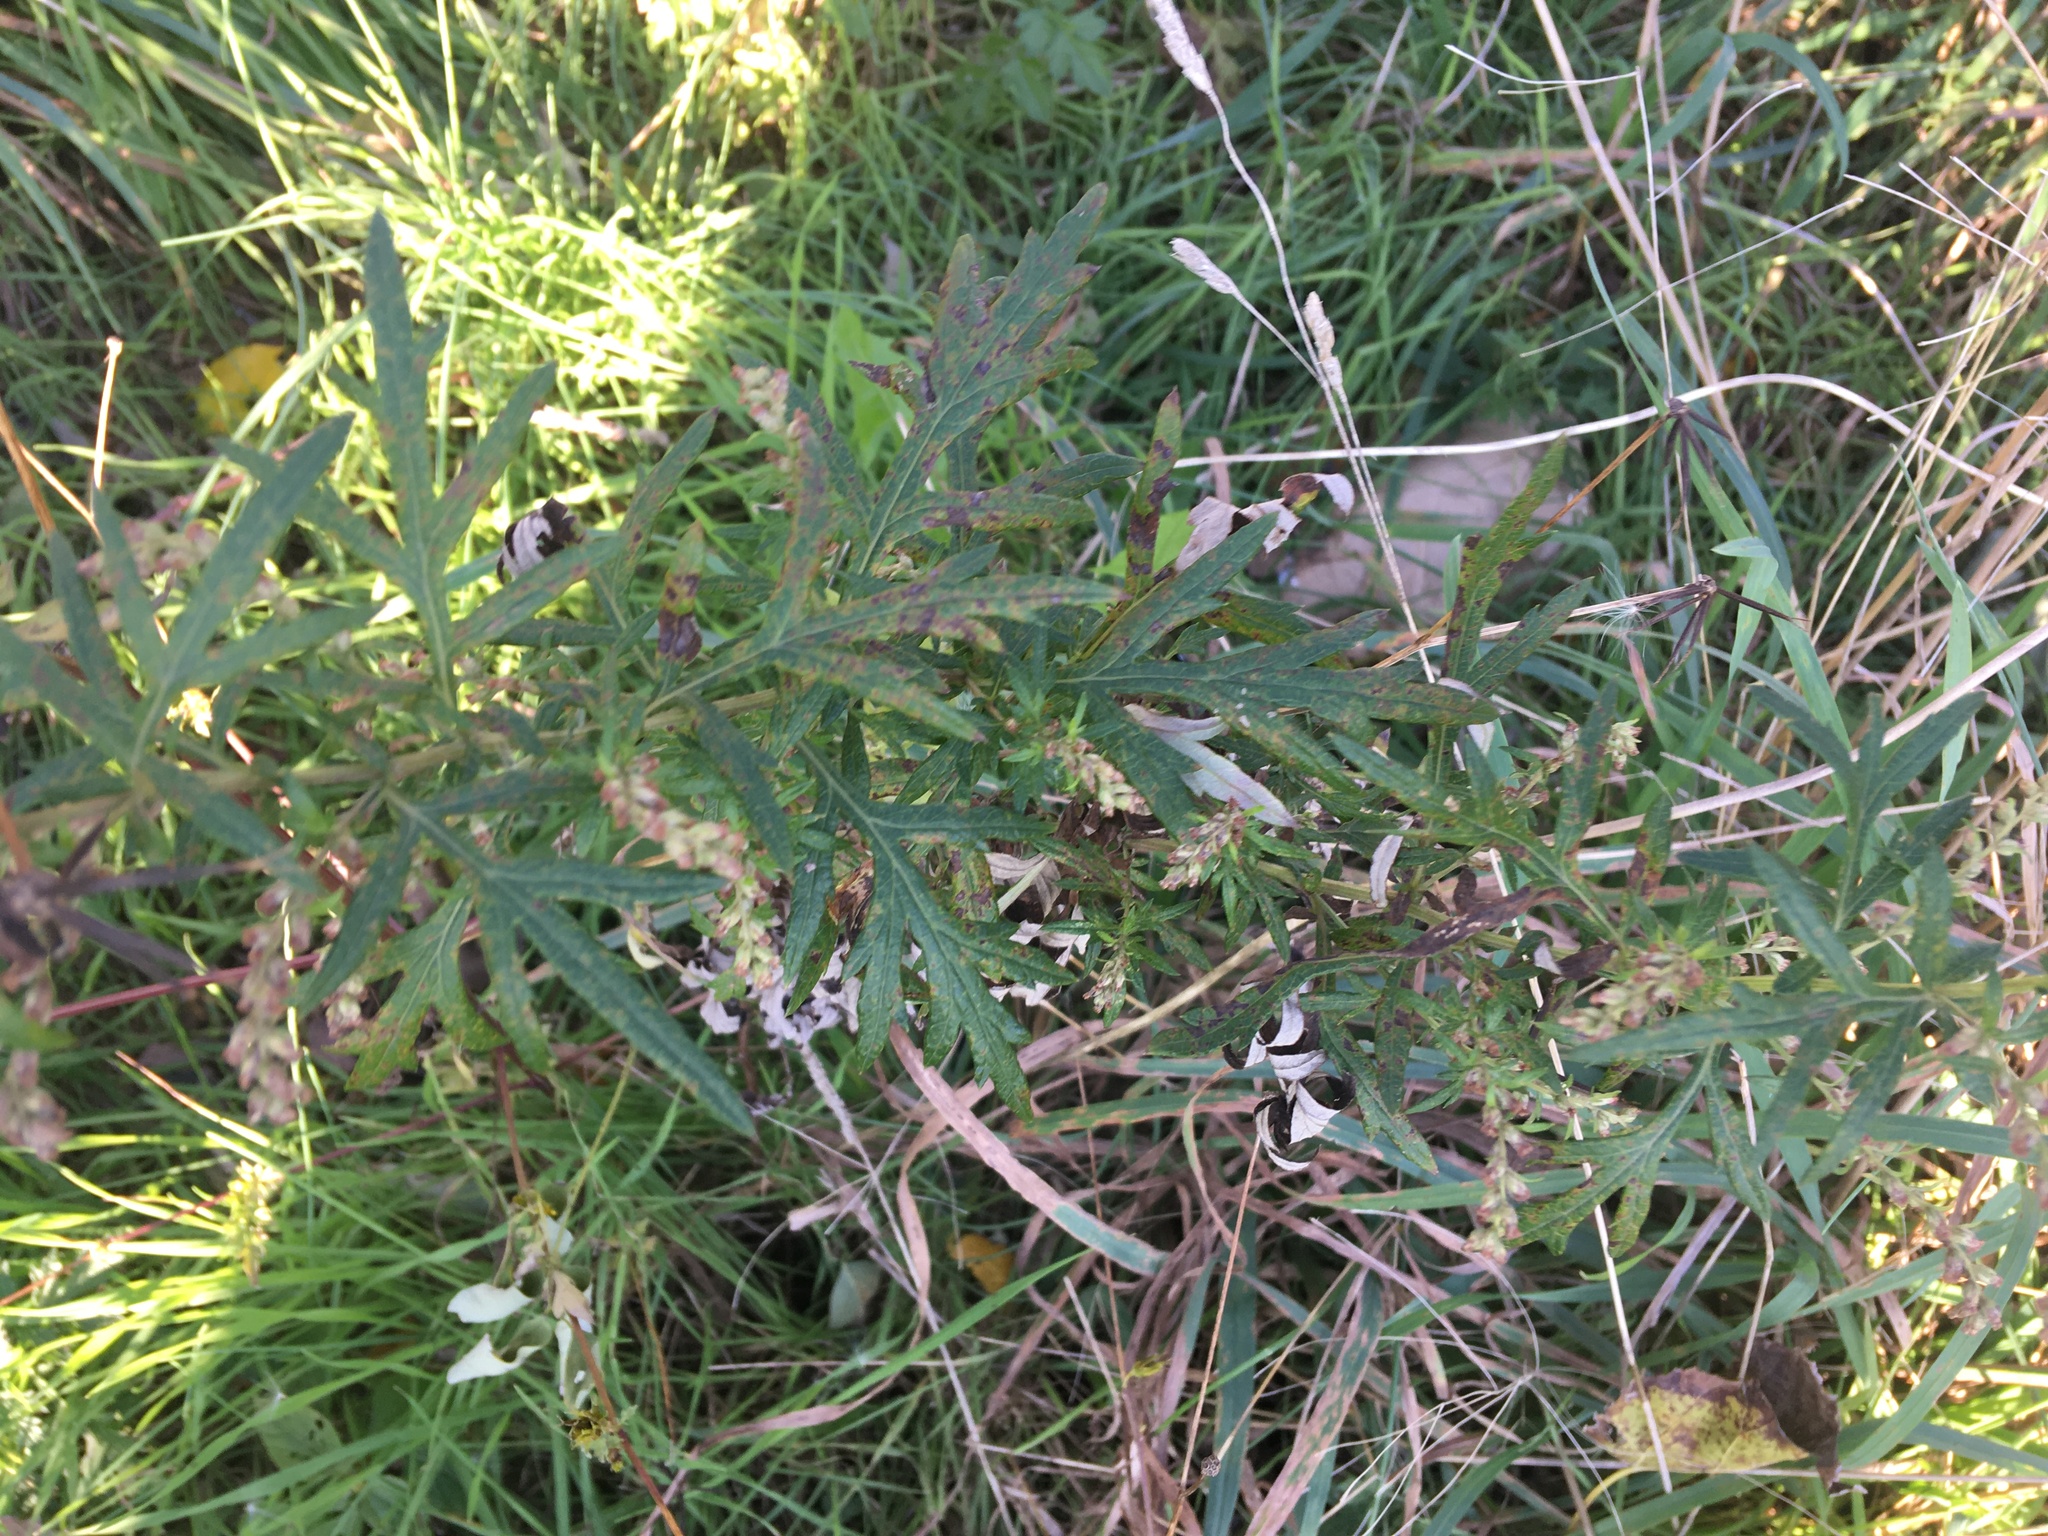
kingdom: Plantae
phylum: Tracheophyta
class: Magnoliopsida
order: Asterales
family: Asteraceae
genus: Artemisia
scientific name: Artemisia vulgaris
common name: Mugwort
